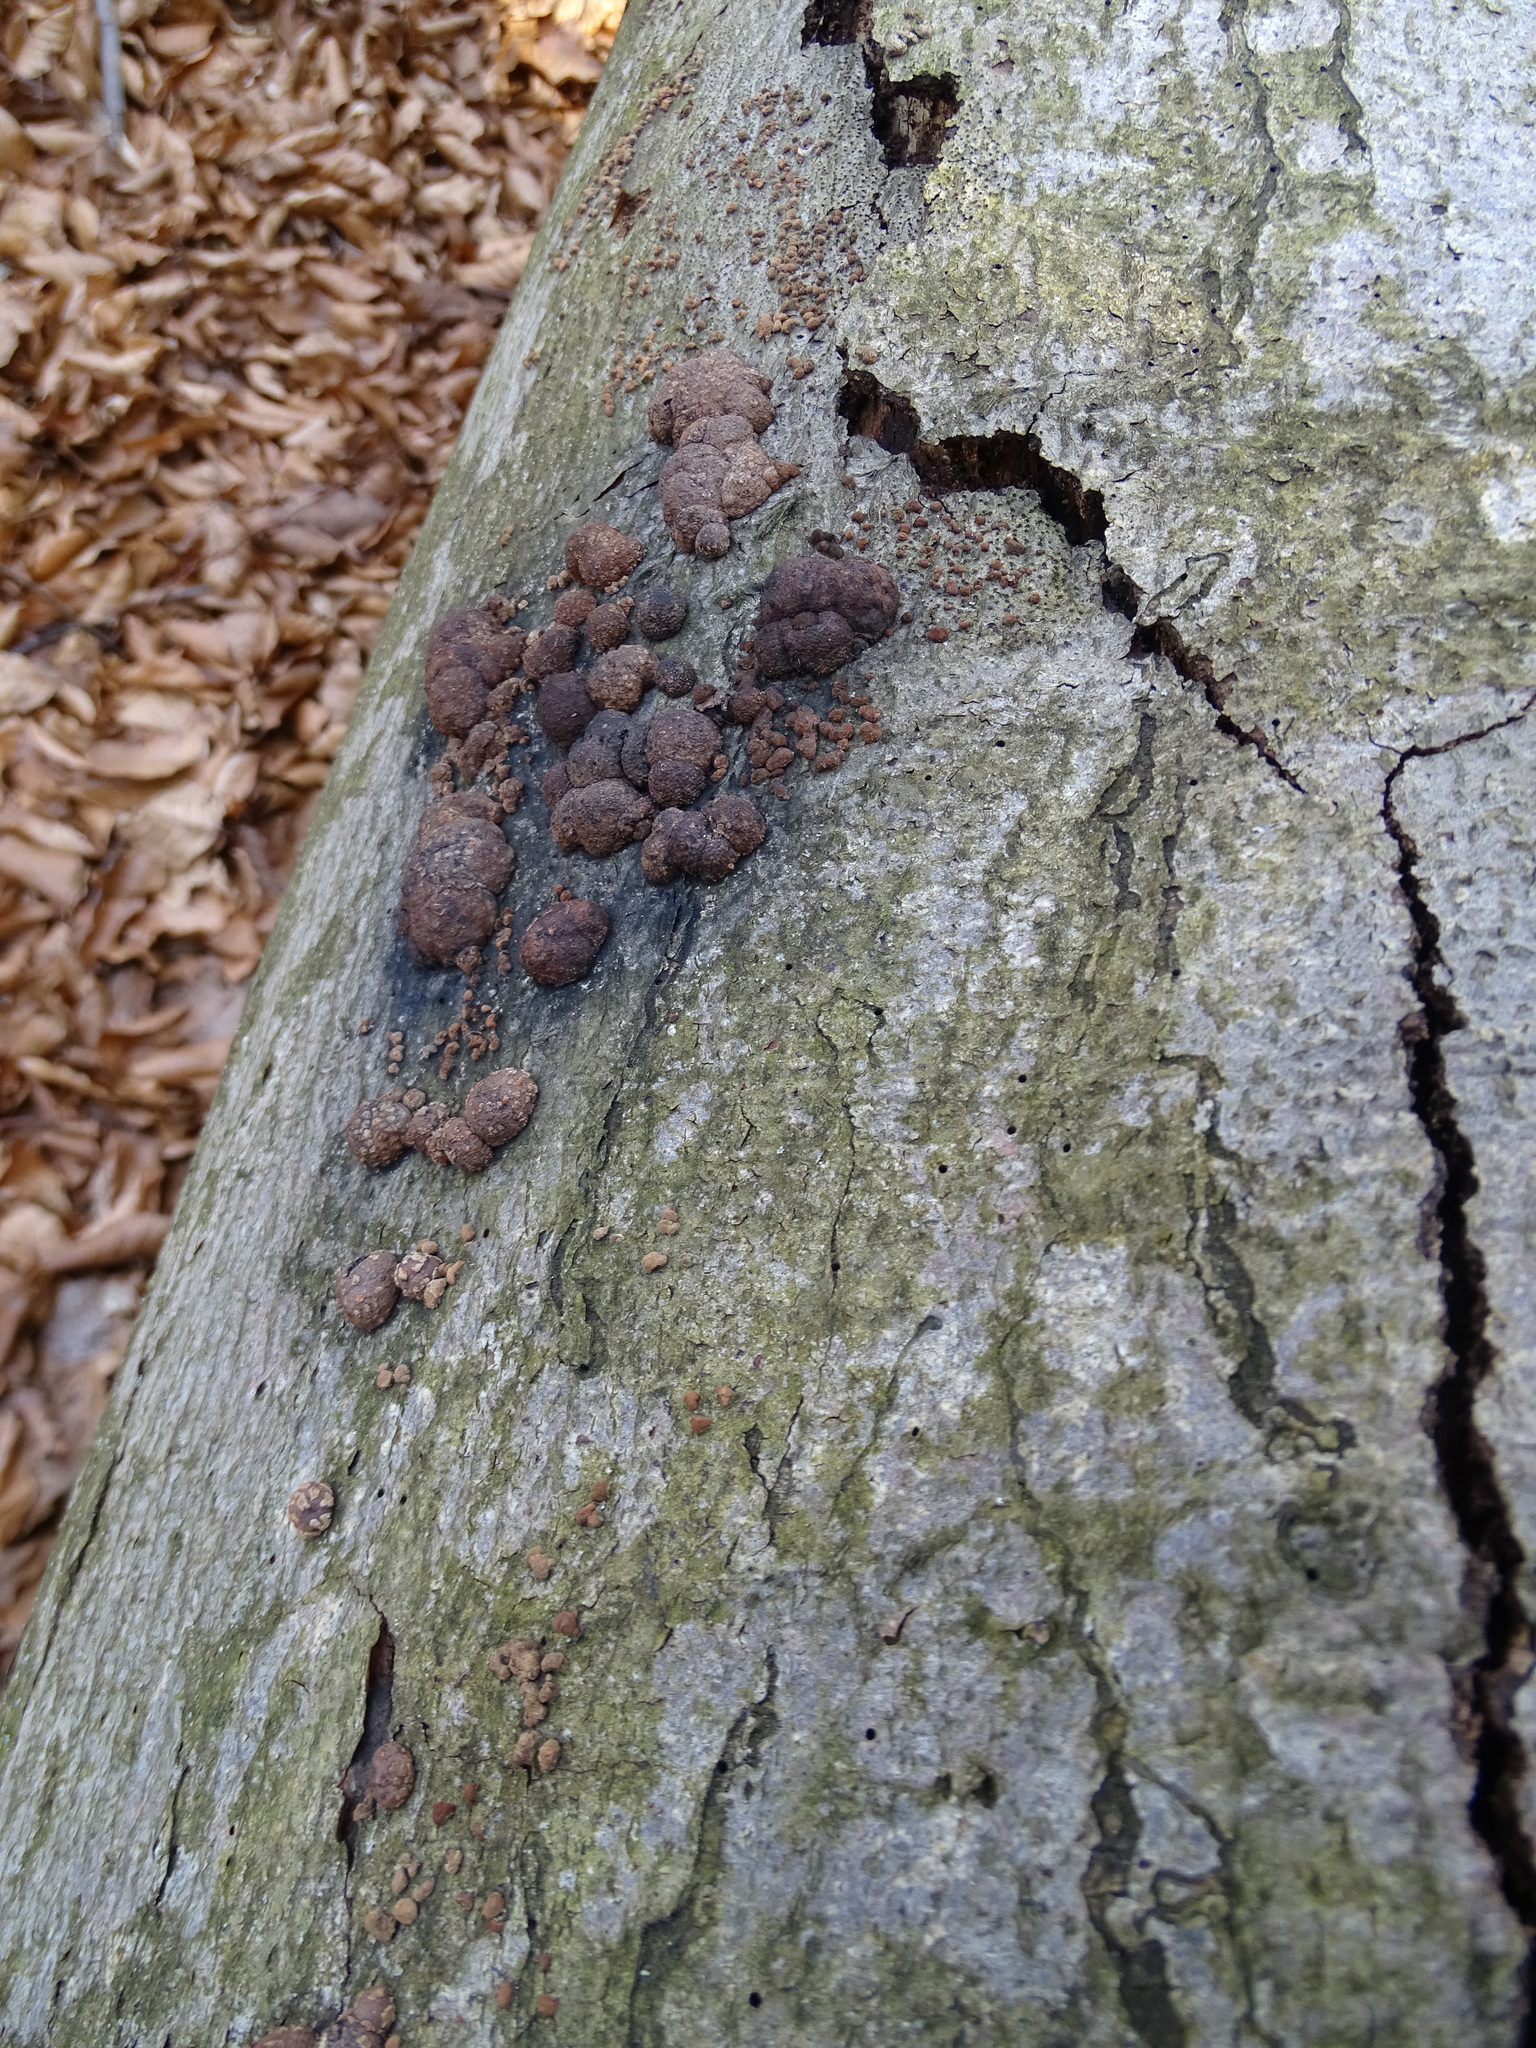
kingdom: Fungi
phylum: Ascomycota
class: Sordariomycetes
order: Xylariales
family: Hypoxylaceae
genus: Hypoxylon
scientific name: Hypoxylon fragiforme
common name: Beech woodwart
